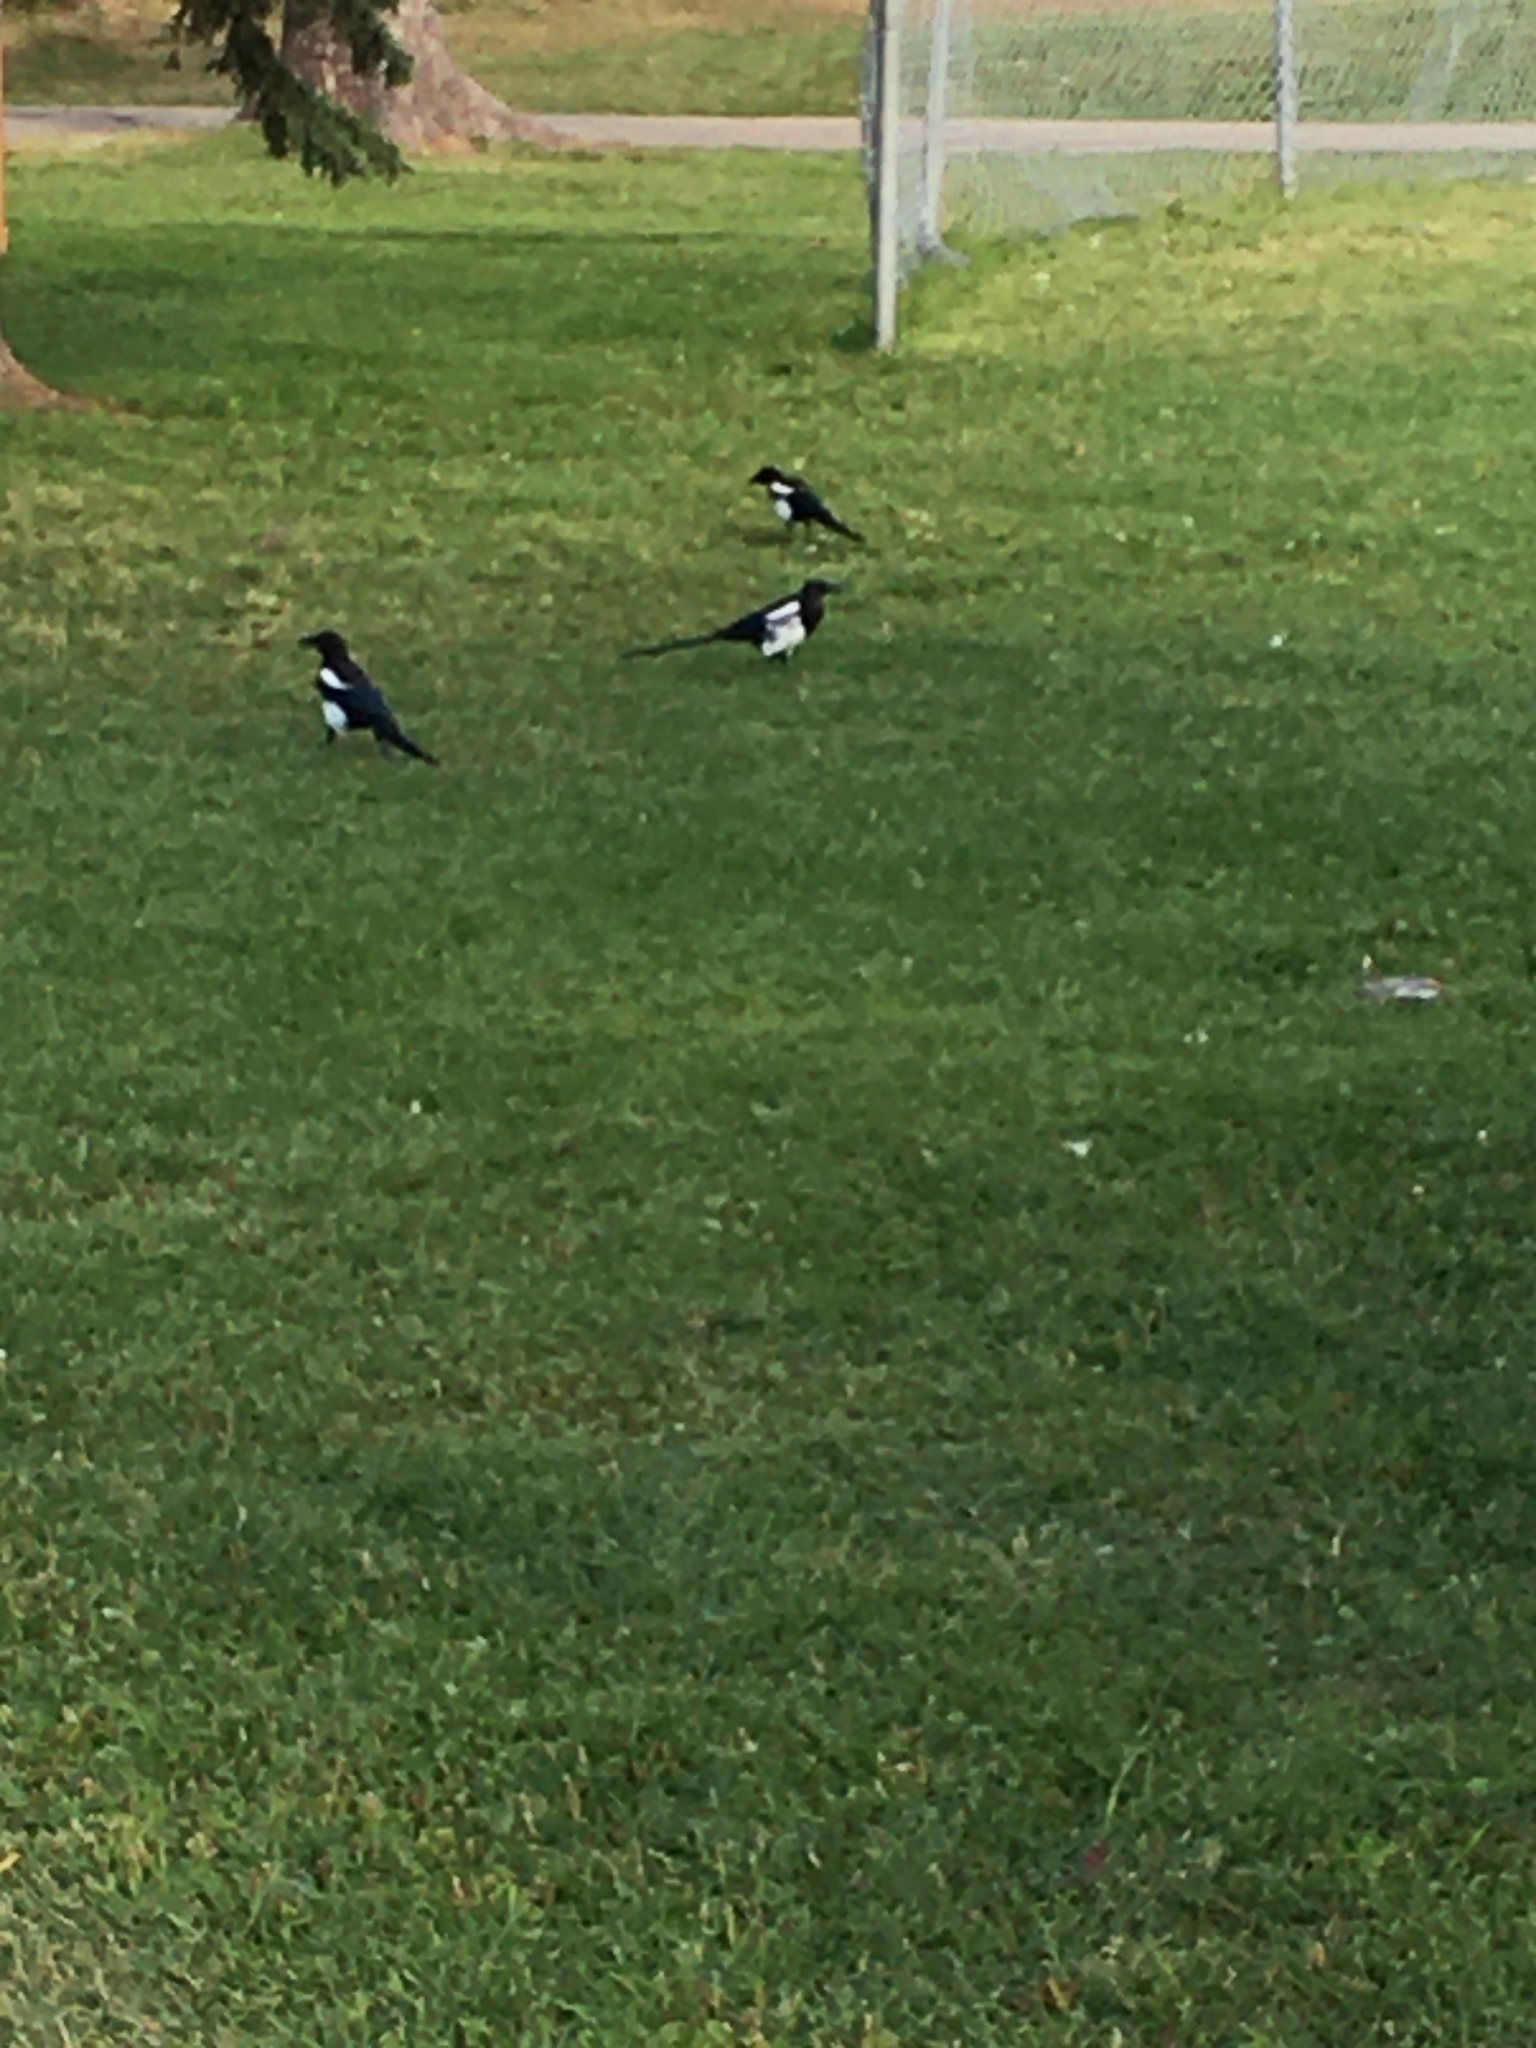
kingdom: Animalia
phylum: Chordata
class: Aves
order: Passeriformes
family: Corvidae
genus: Pica
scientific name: Pica hudsonia
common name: Black-billed magpie
